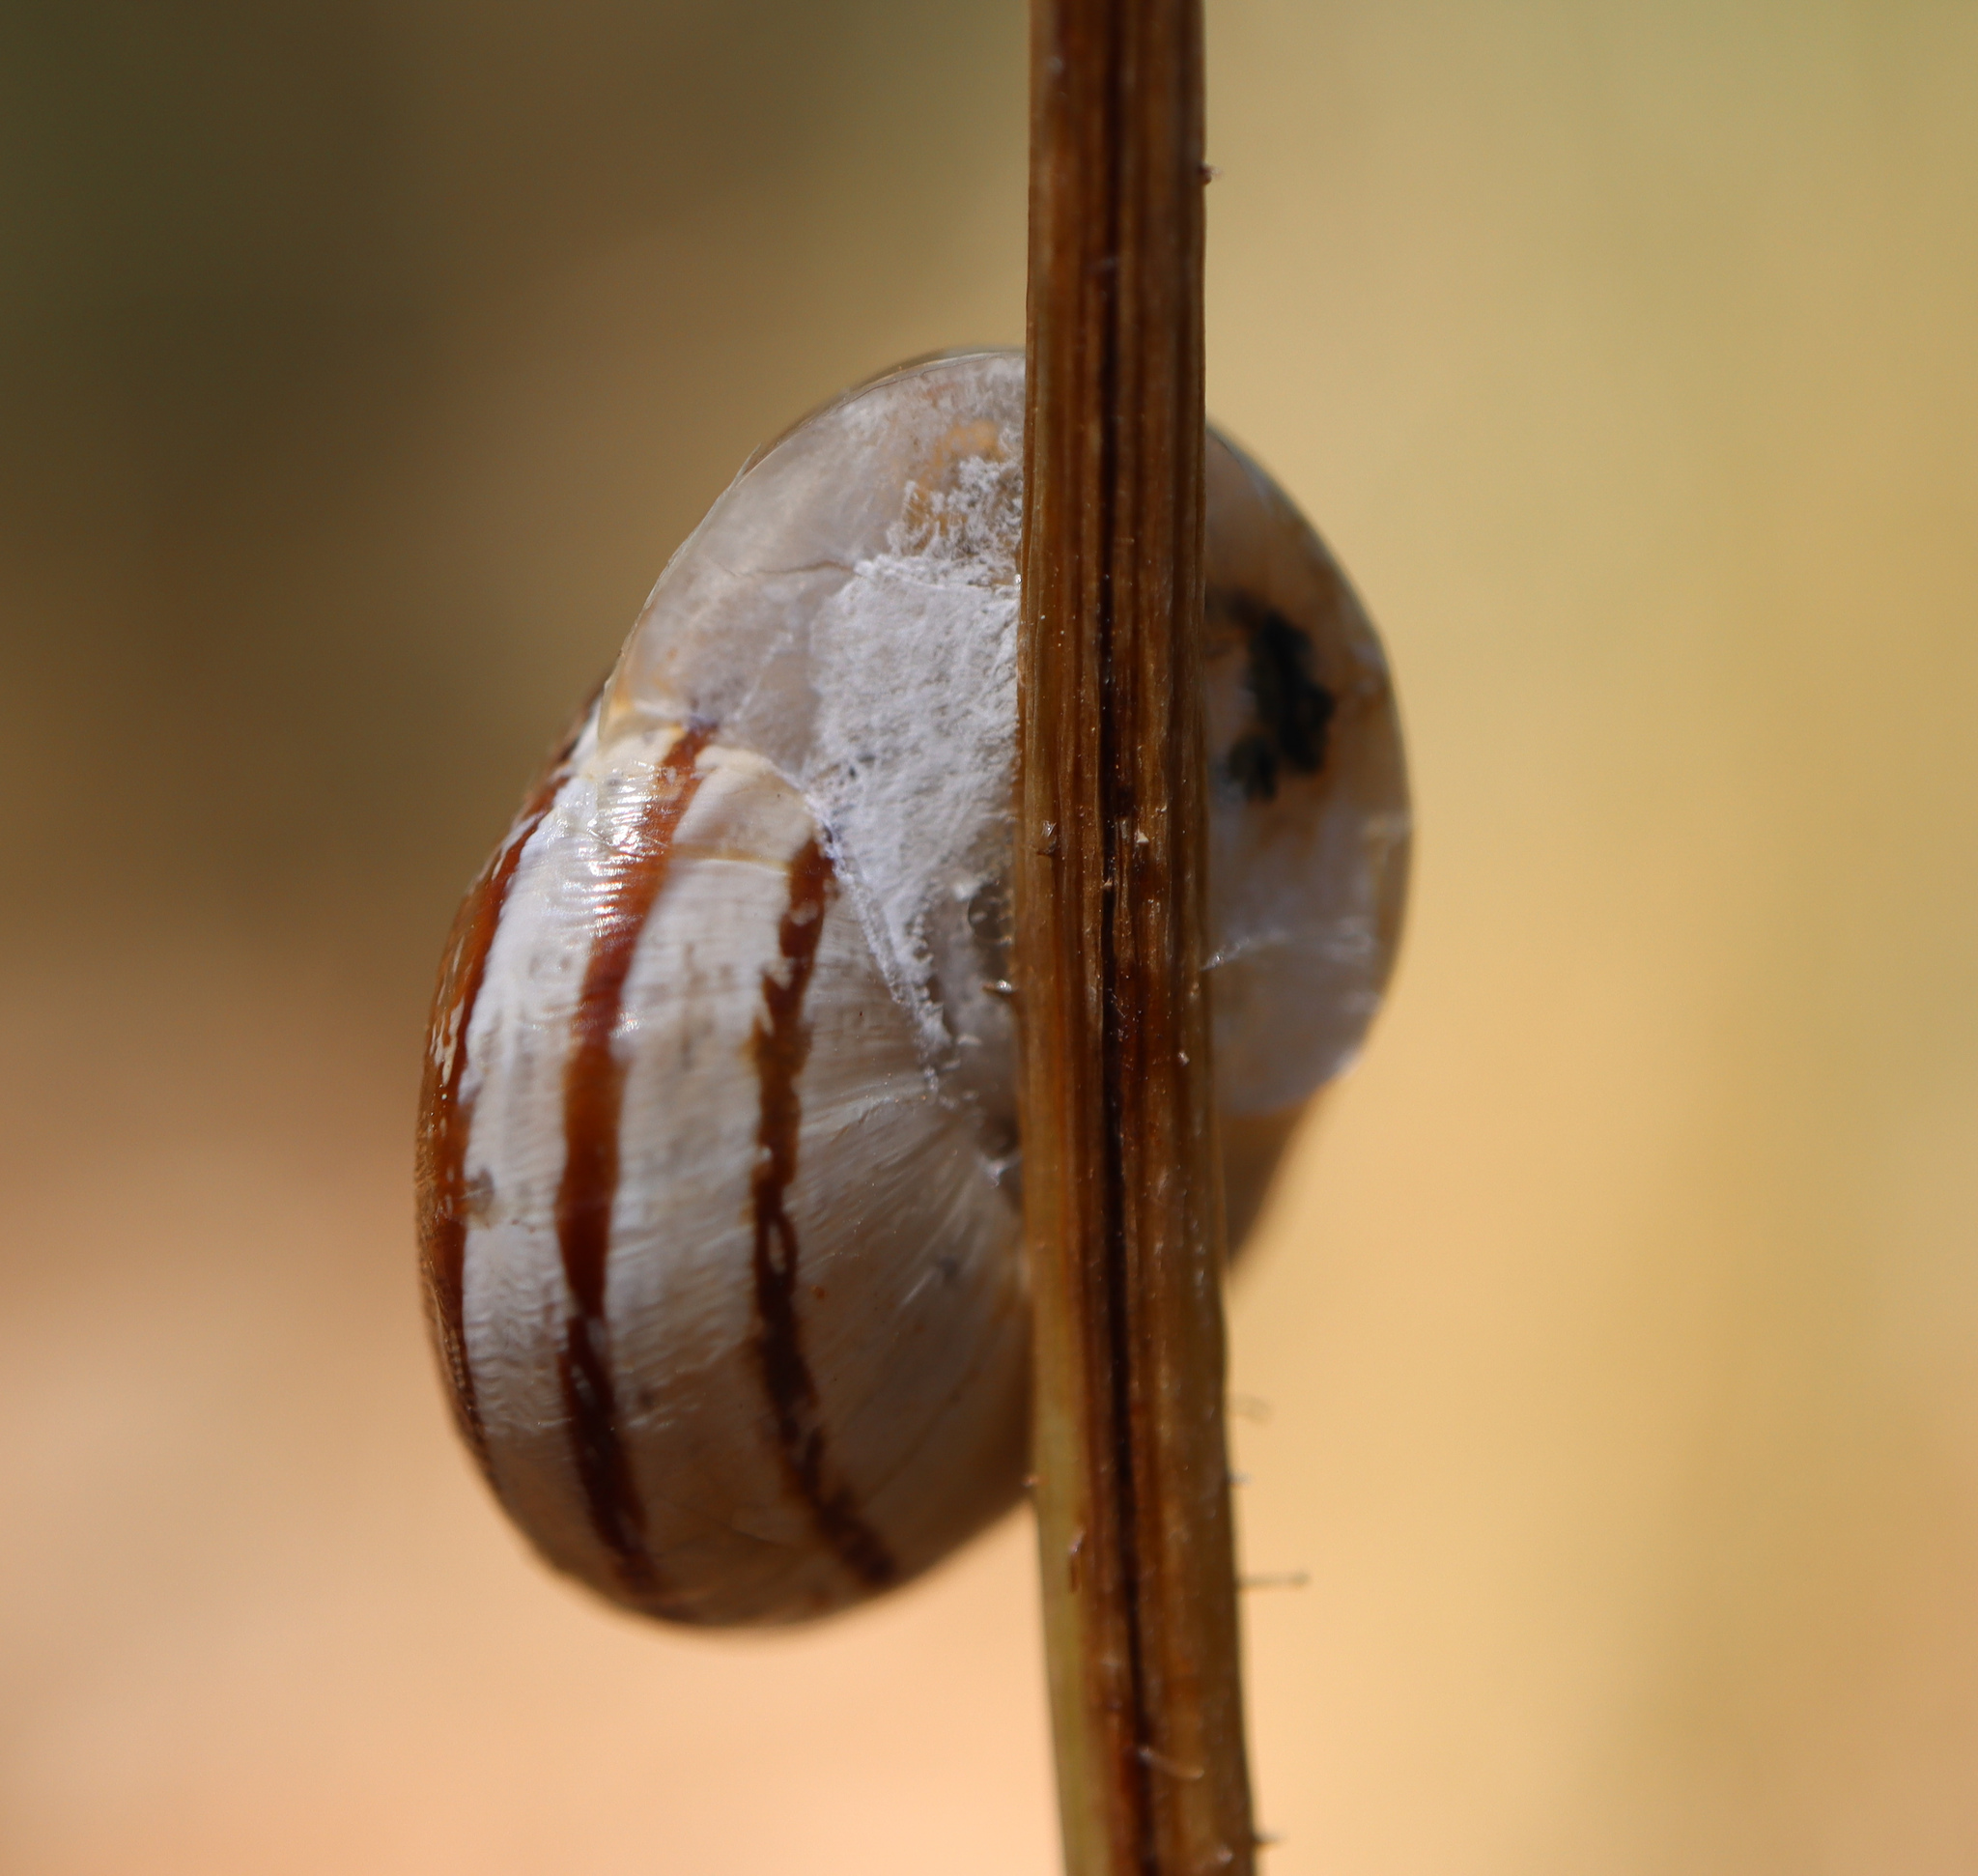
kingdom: Animalia
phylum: Mollusca
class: Gastropoda
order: Stylommatophora
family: Helicidae
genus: Eobania
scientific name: Eobania vermiculata
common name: Chocolateband snail
